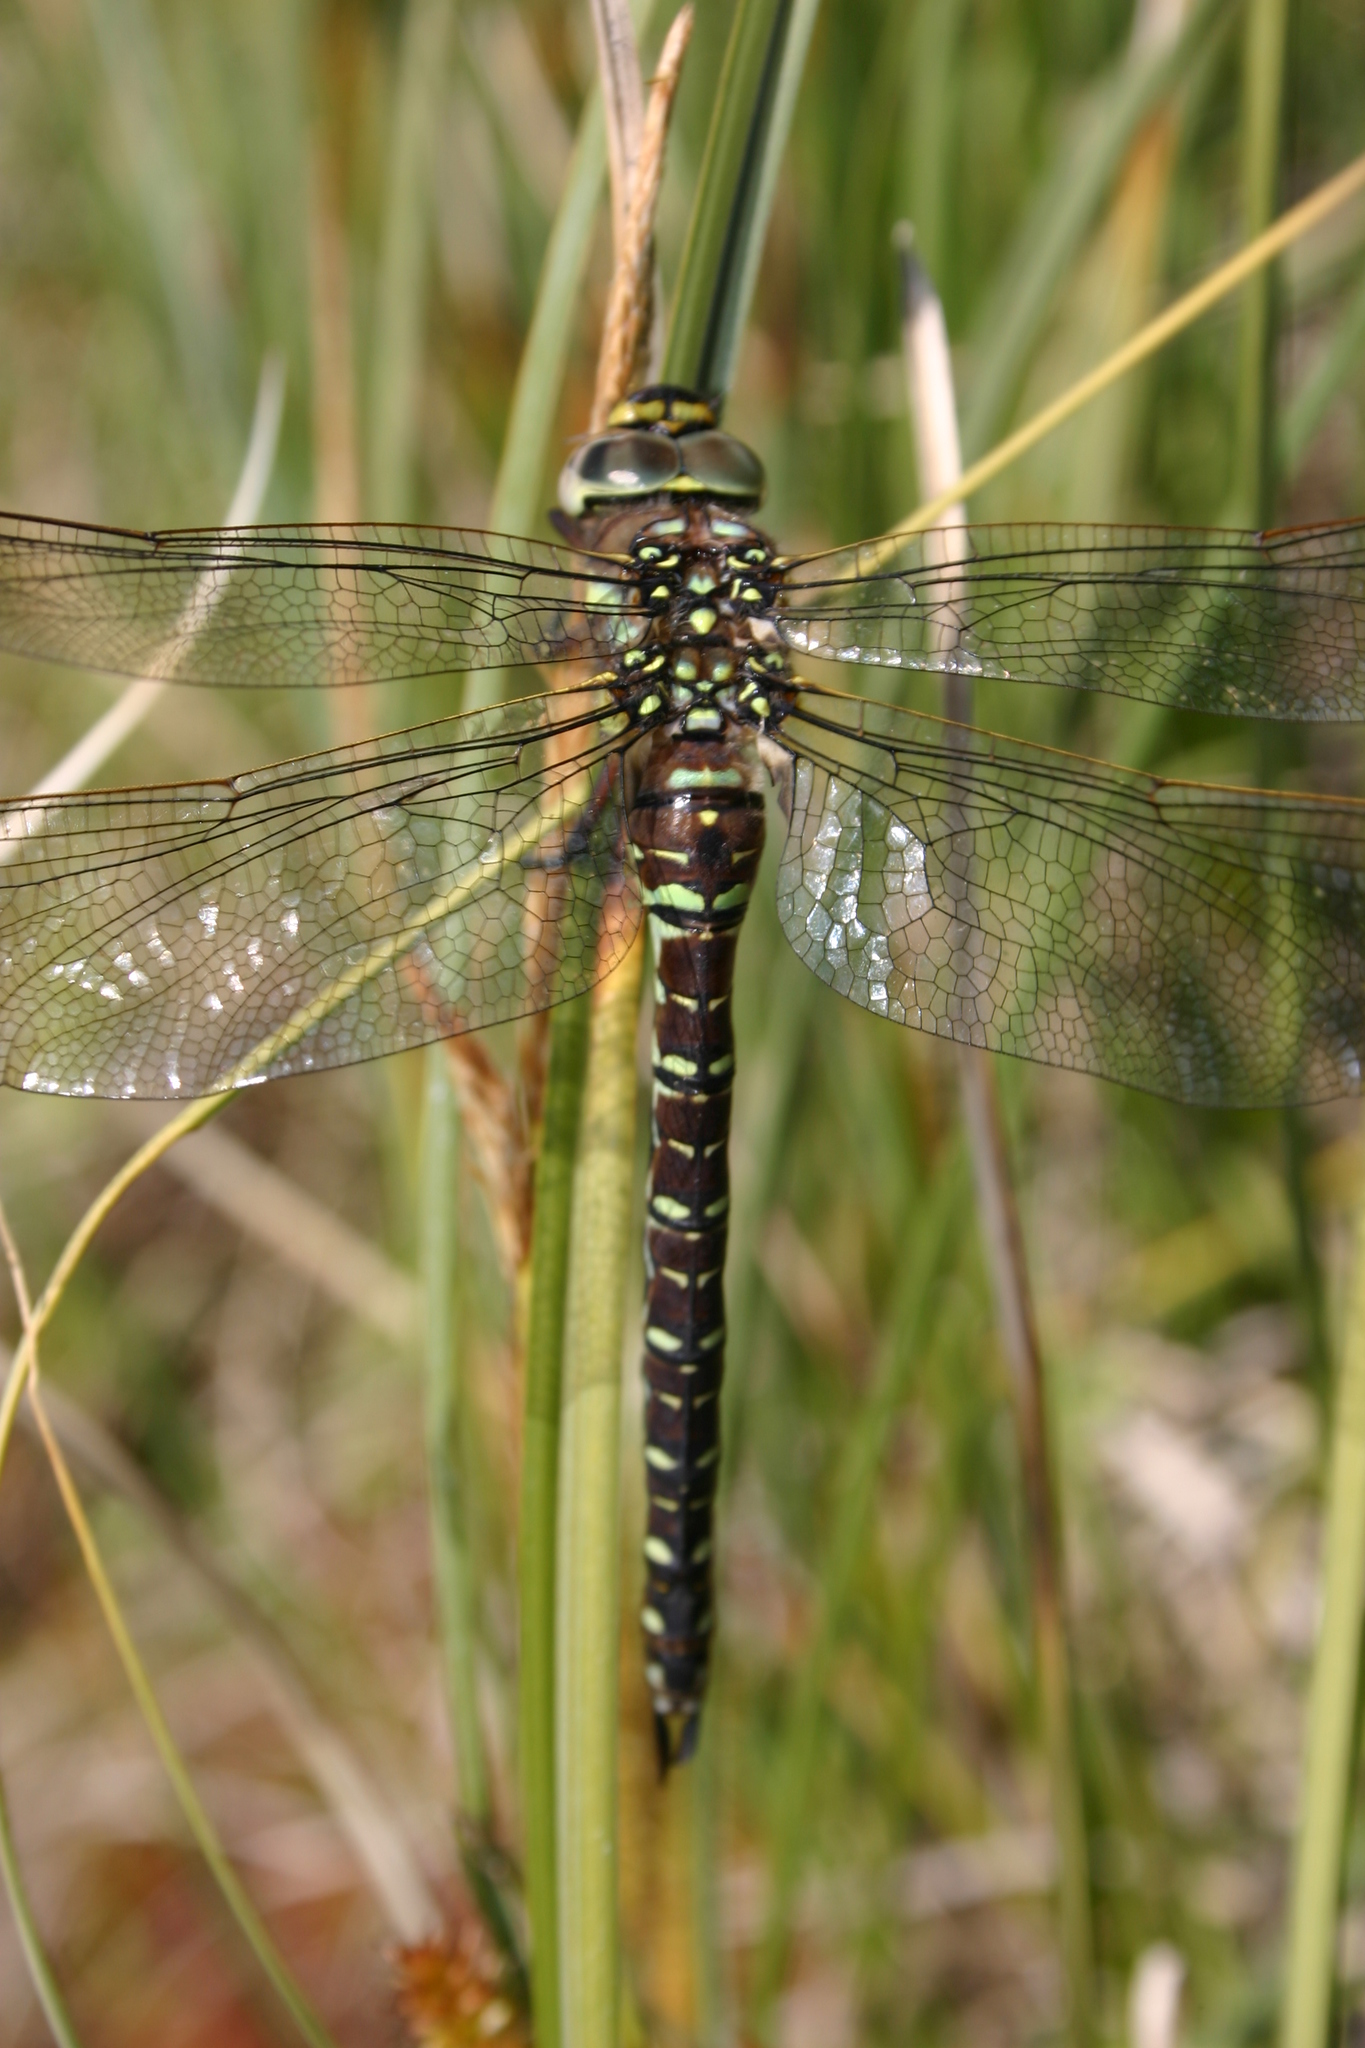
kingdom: Animalia
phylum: Arthropoda
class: Insecta
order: Odonata
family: Aeshnidae
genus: Aeshna
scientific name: Aeshna juncea
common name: Moorland hawker
